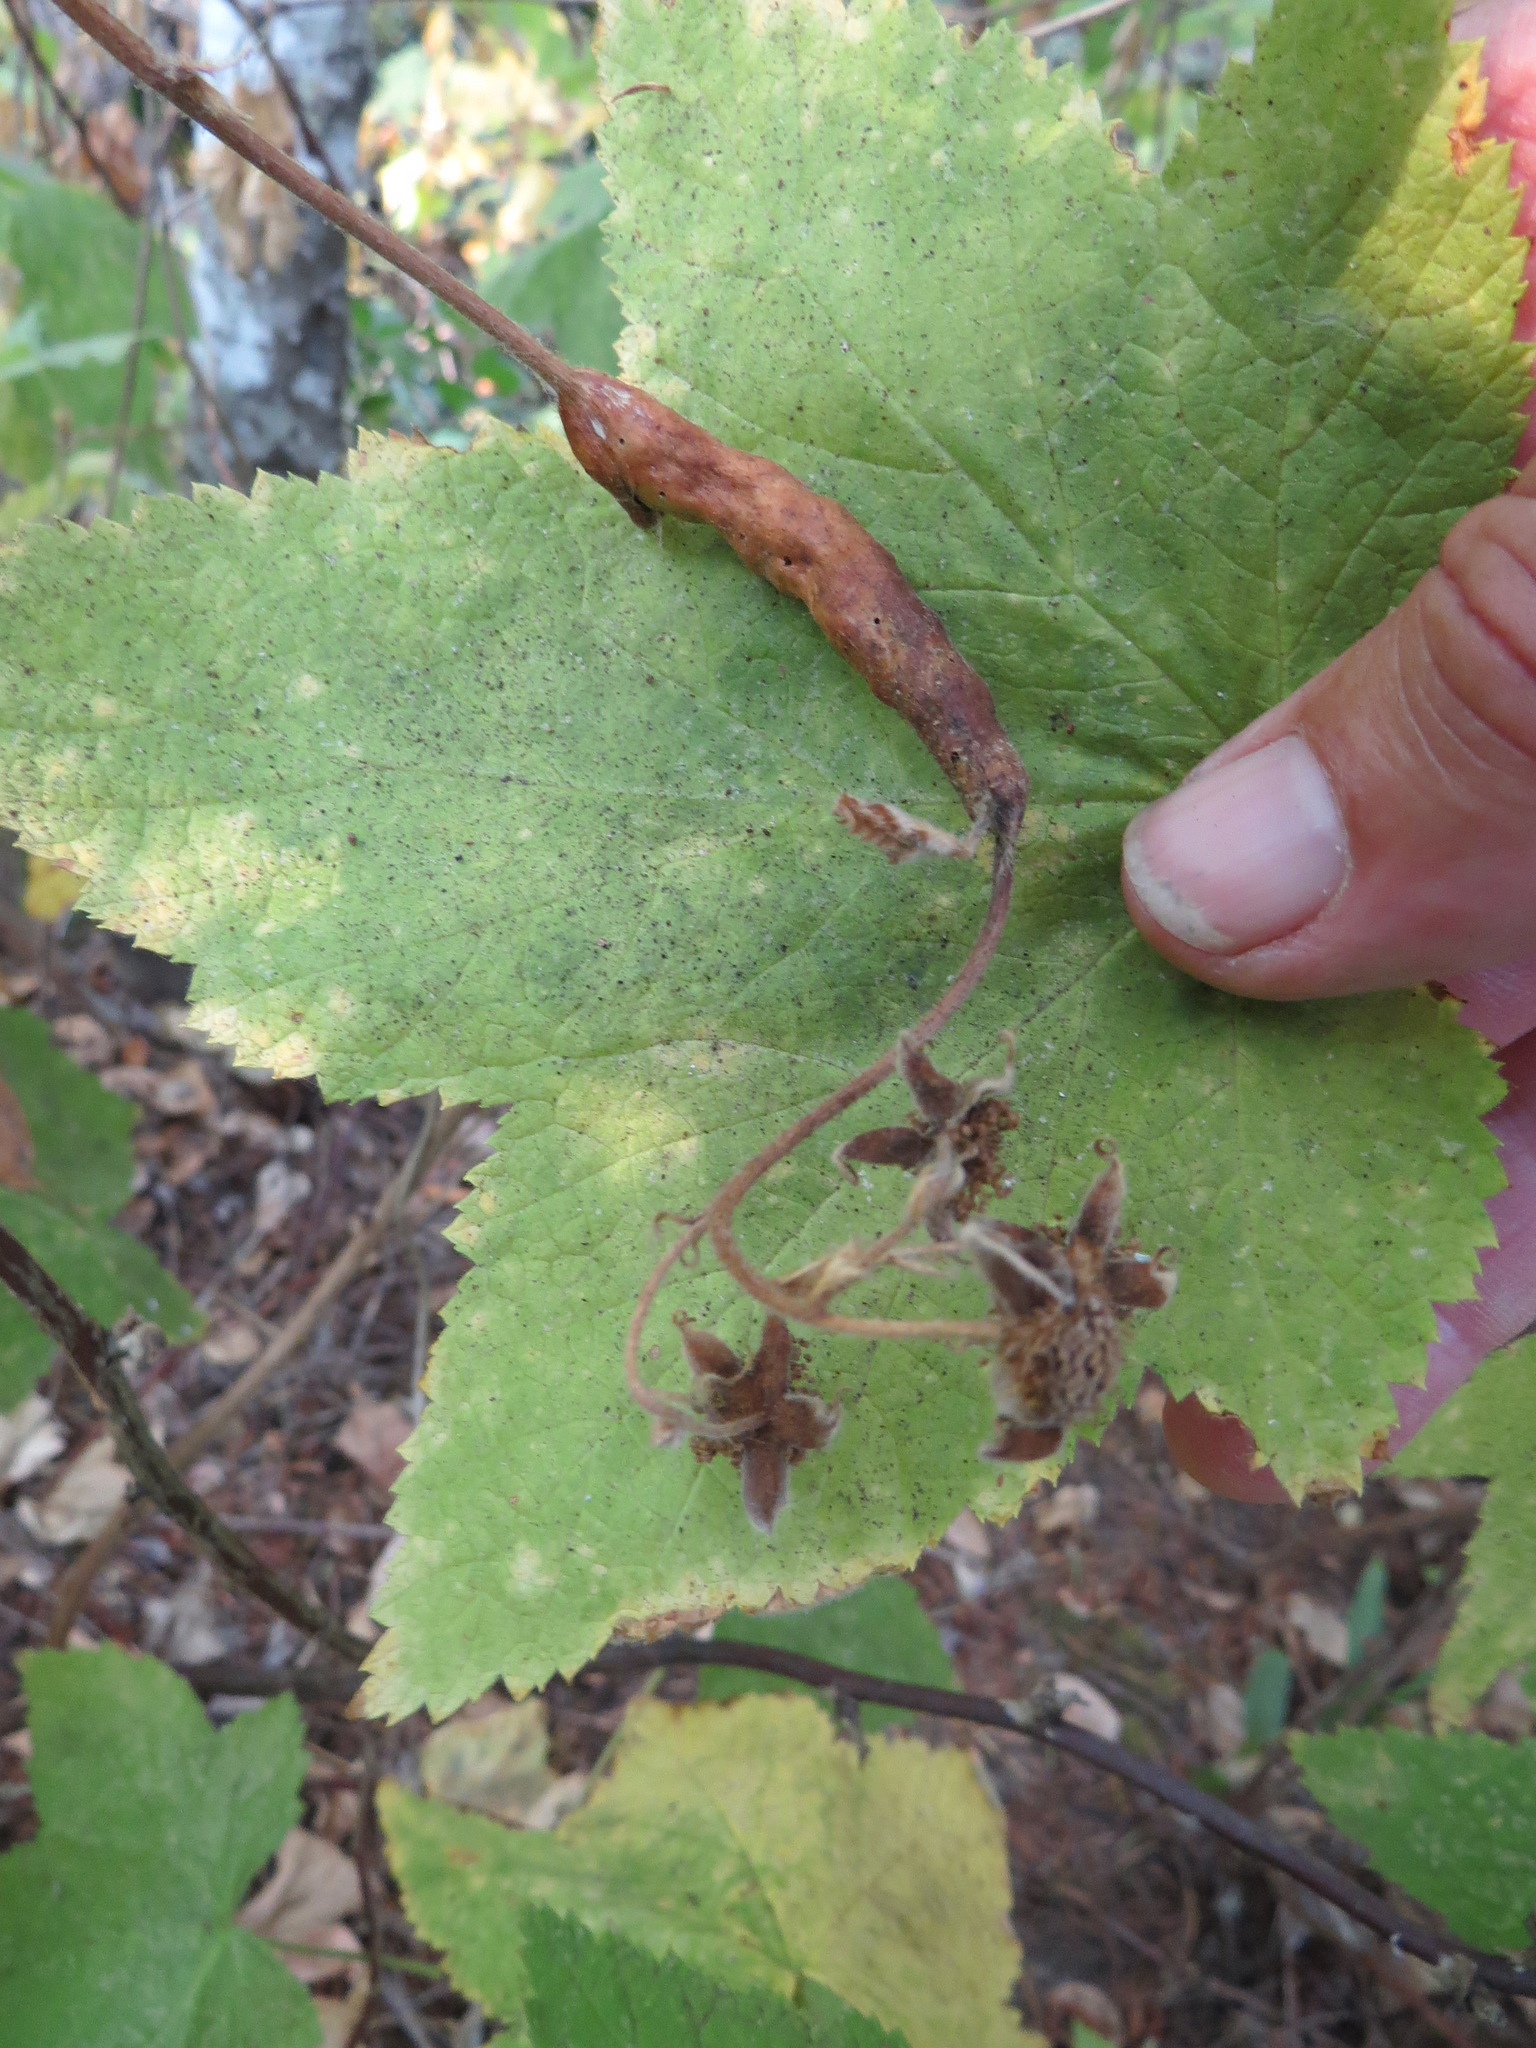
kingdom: Animalia
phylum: Arthropoda
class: Insecta
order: Hymenoptera
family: Cynipidae
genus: Diastrophus
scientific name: Diastrophus
